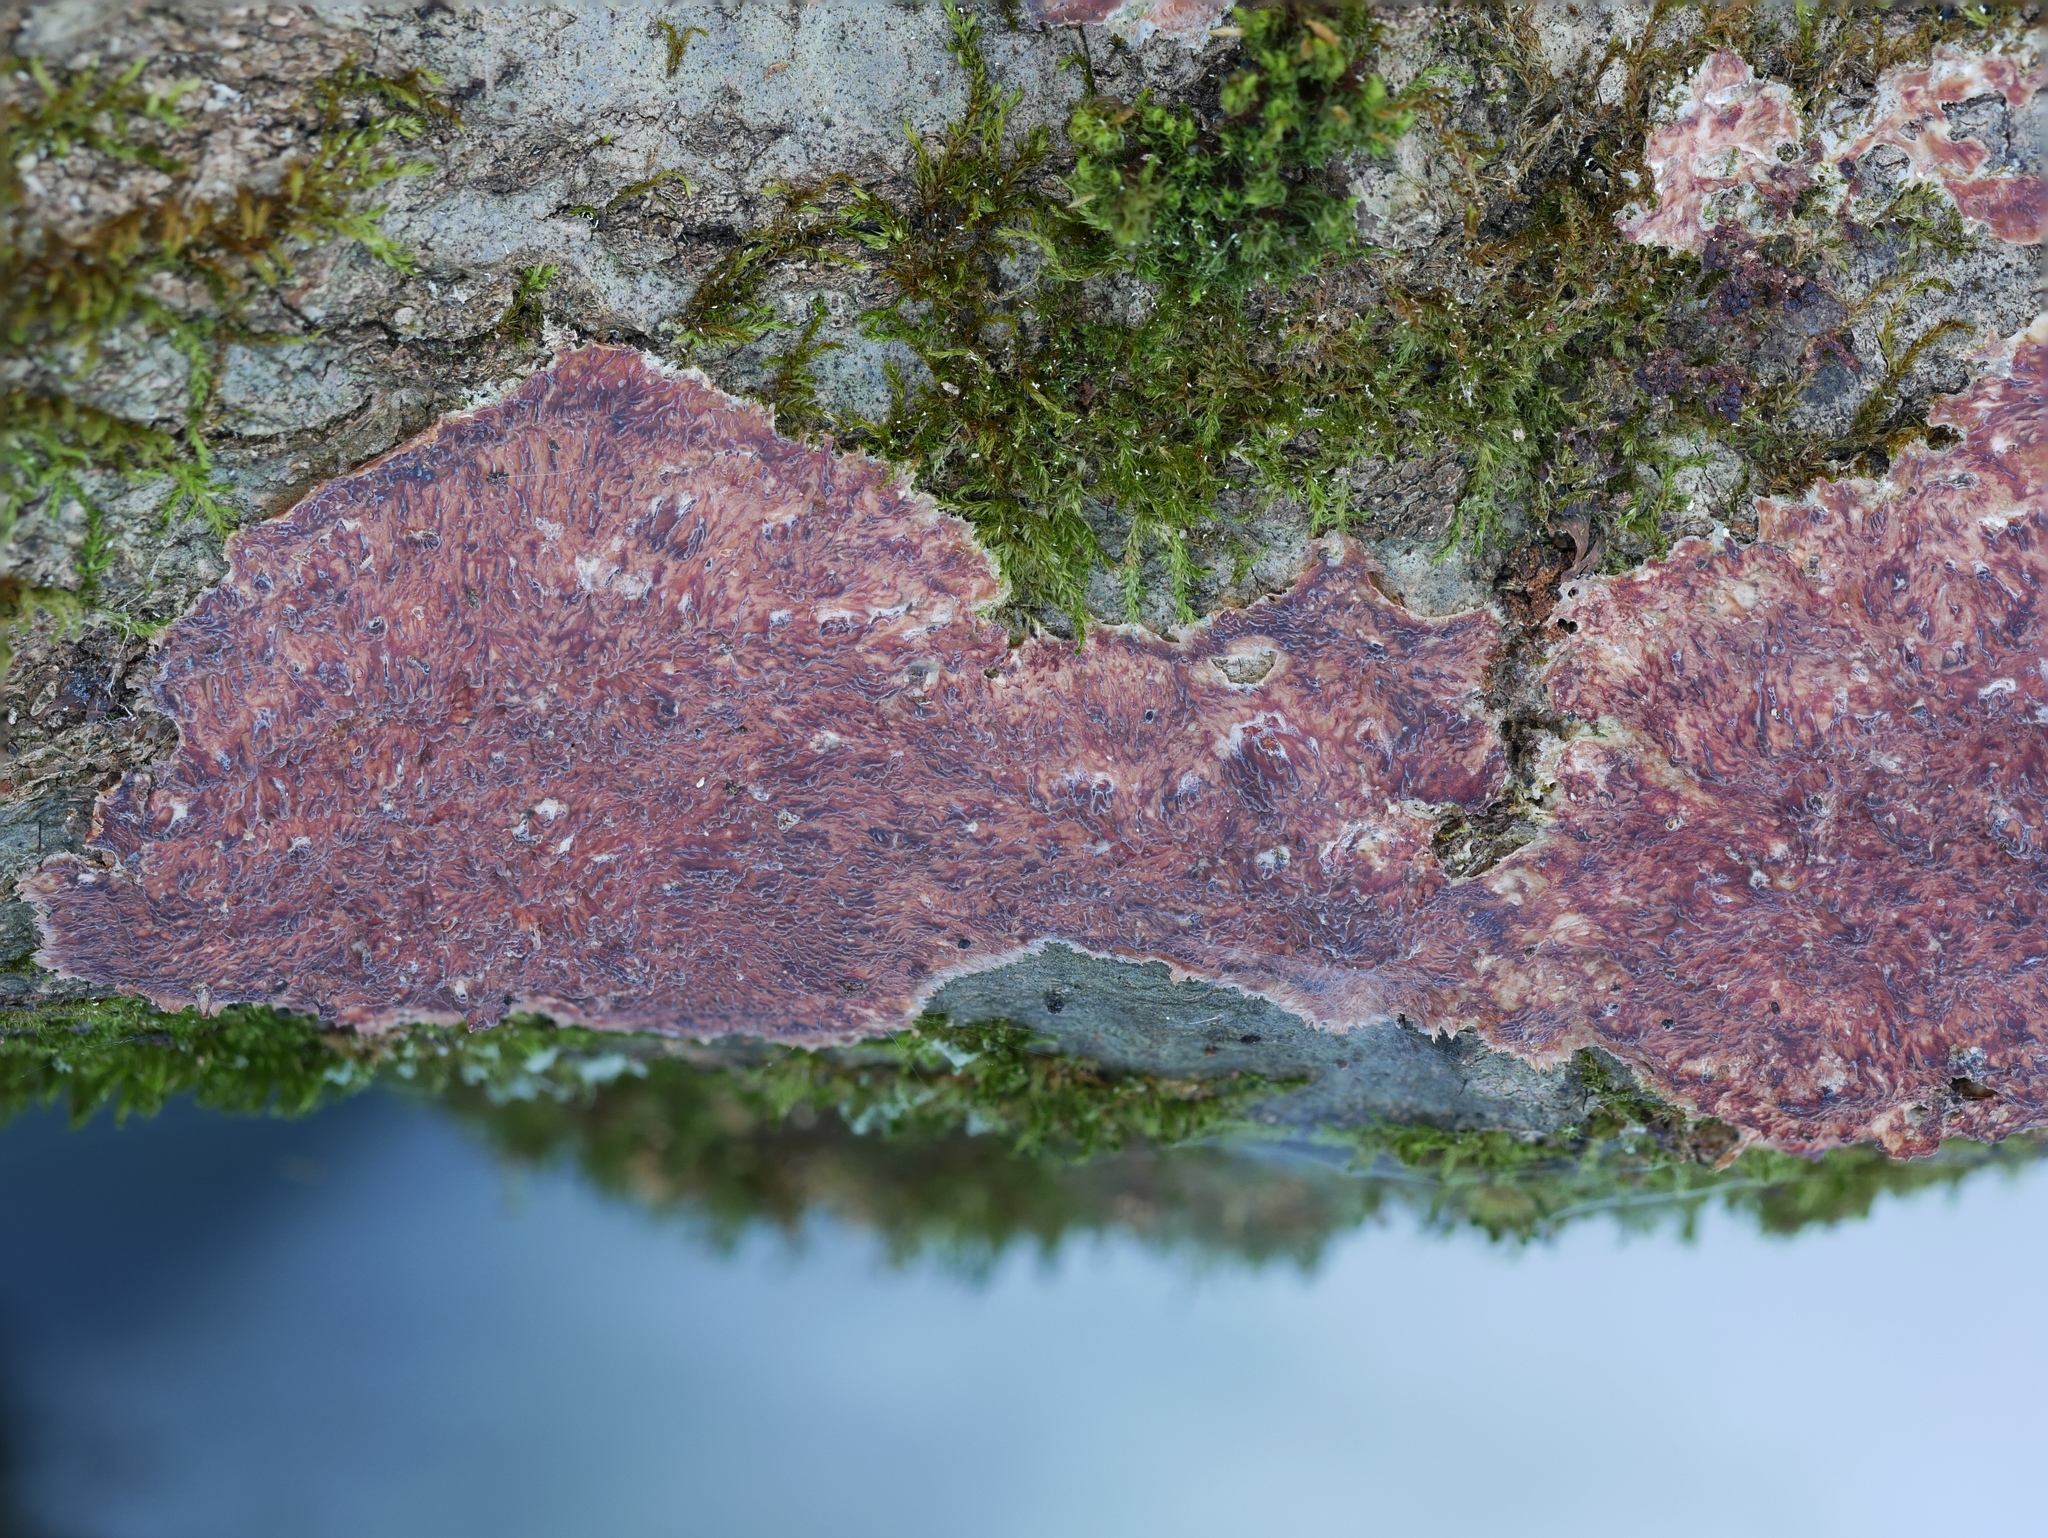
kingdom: Fungi
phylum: Basidiomycota
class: Agaricomycetes
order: Polyporales
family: Meruliaceae
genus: Phlebia
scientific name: Phlebia radiata
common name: Wrinkled crust
